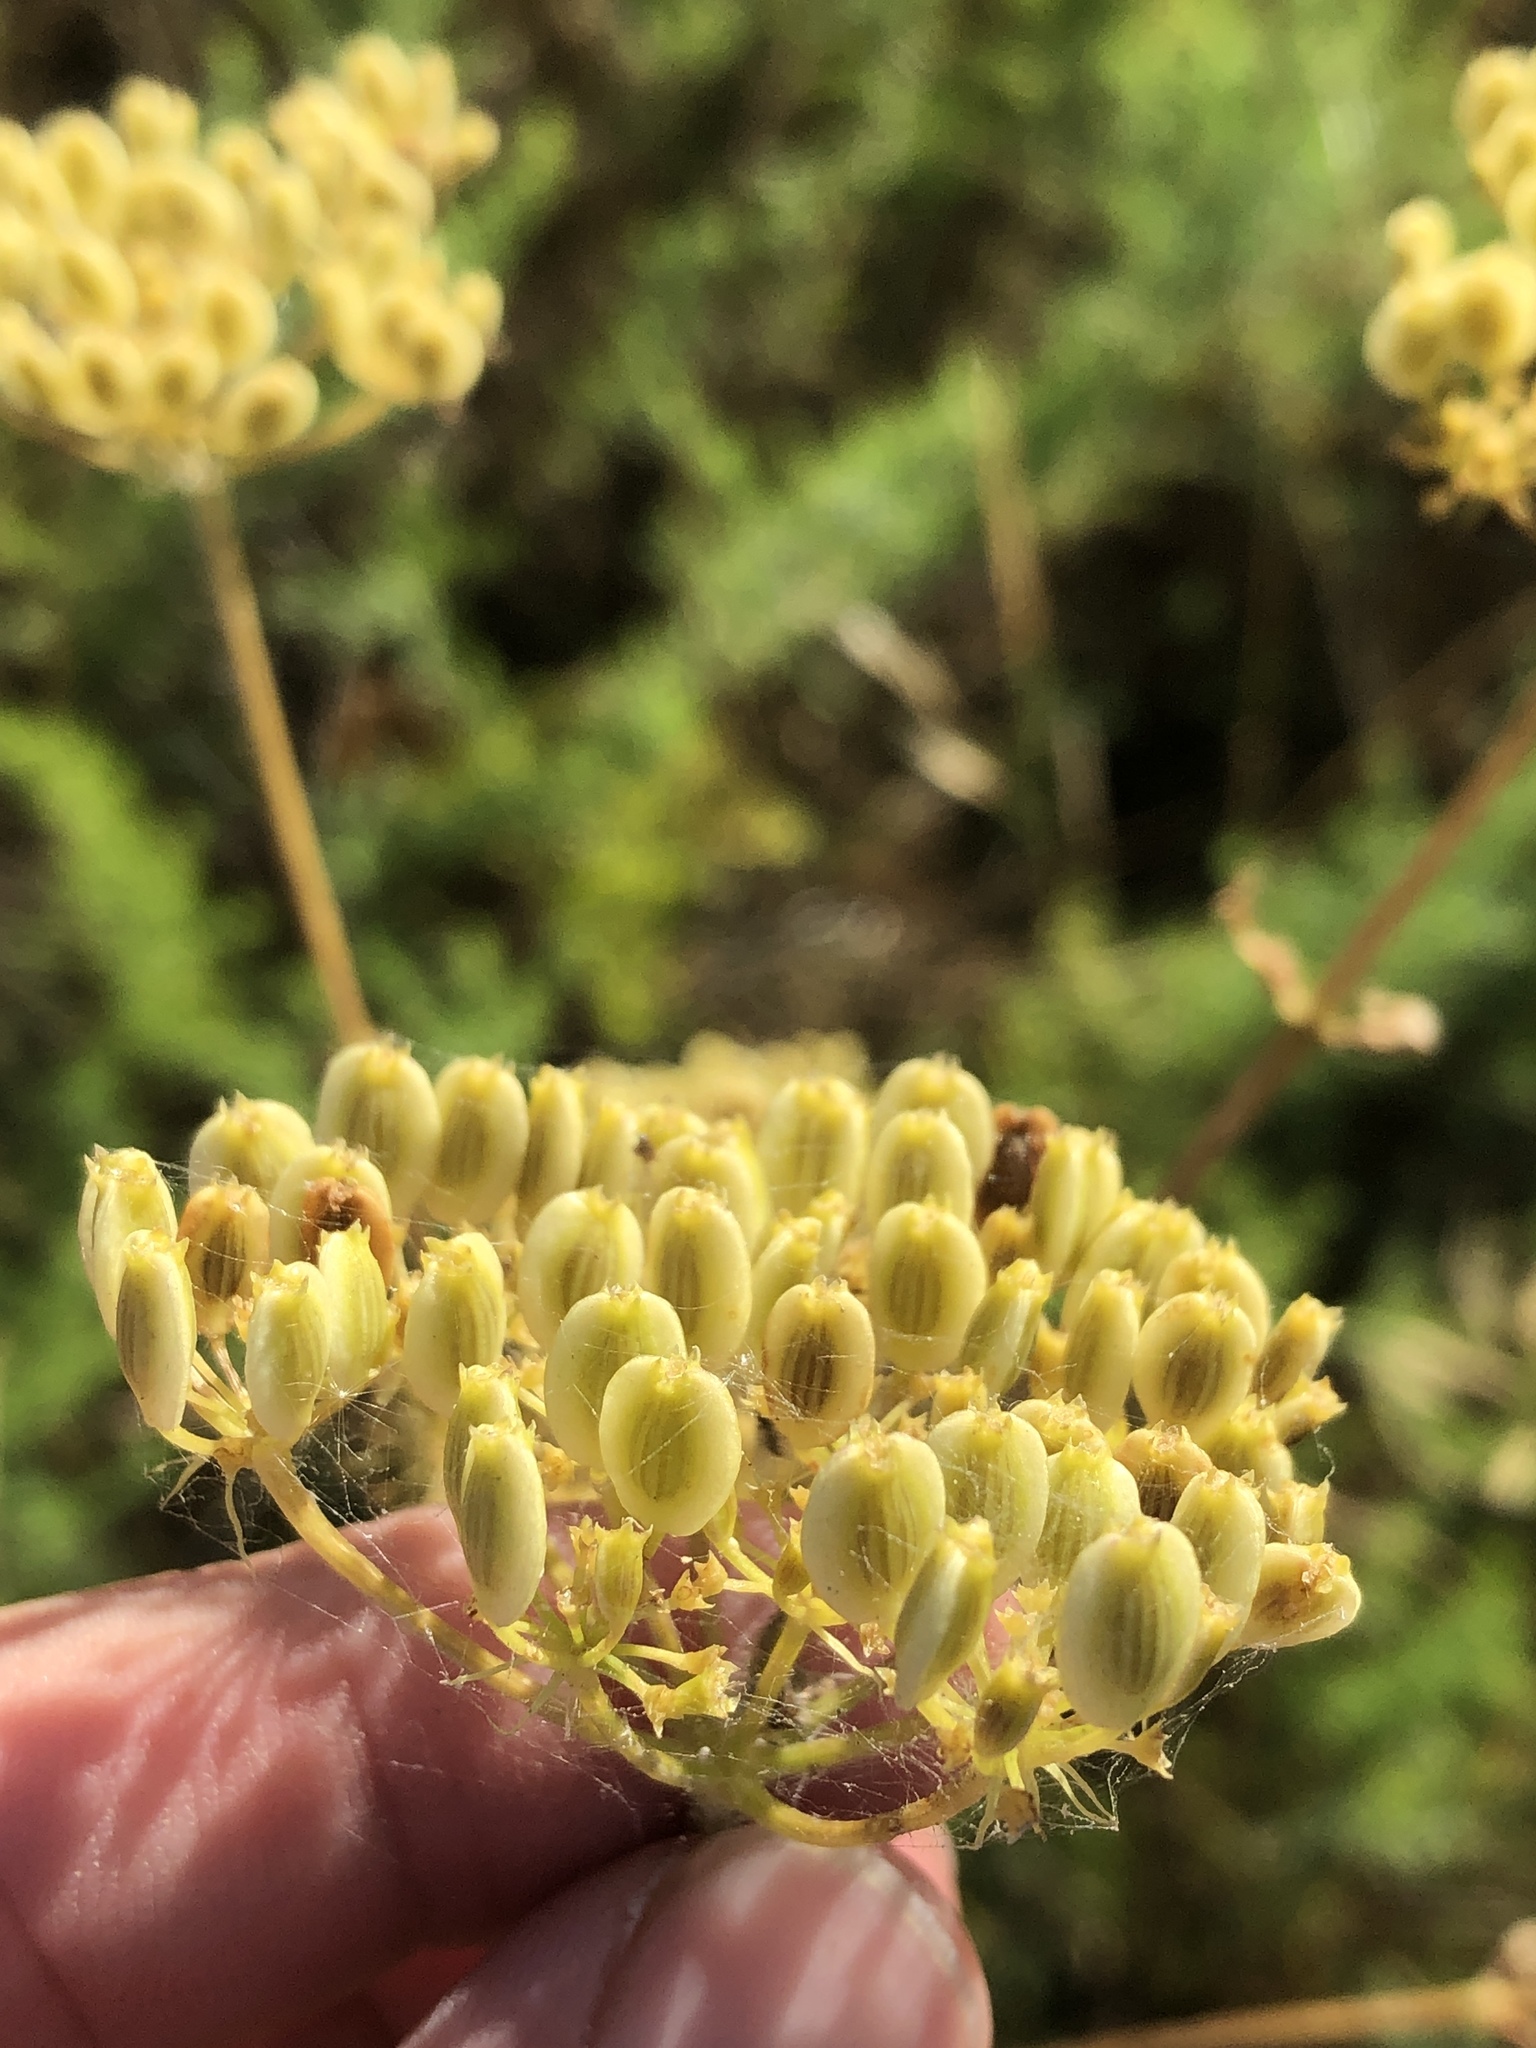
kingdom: Plantae
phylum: Tracheophyta
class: Magnoliopsida
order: Apiales
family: Apiaceae
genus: Polytaenia
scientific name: Polytaenia texana
